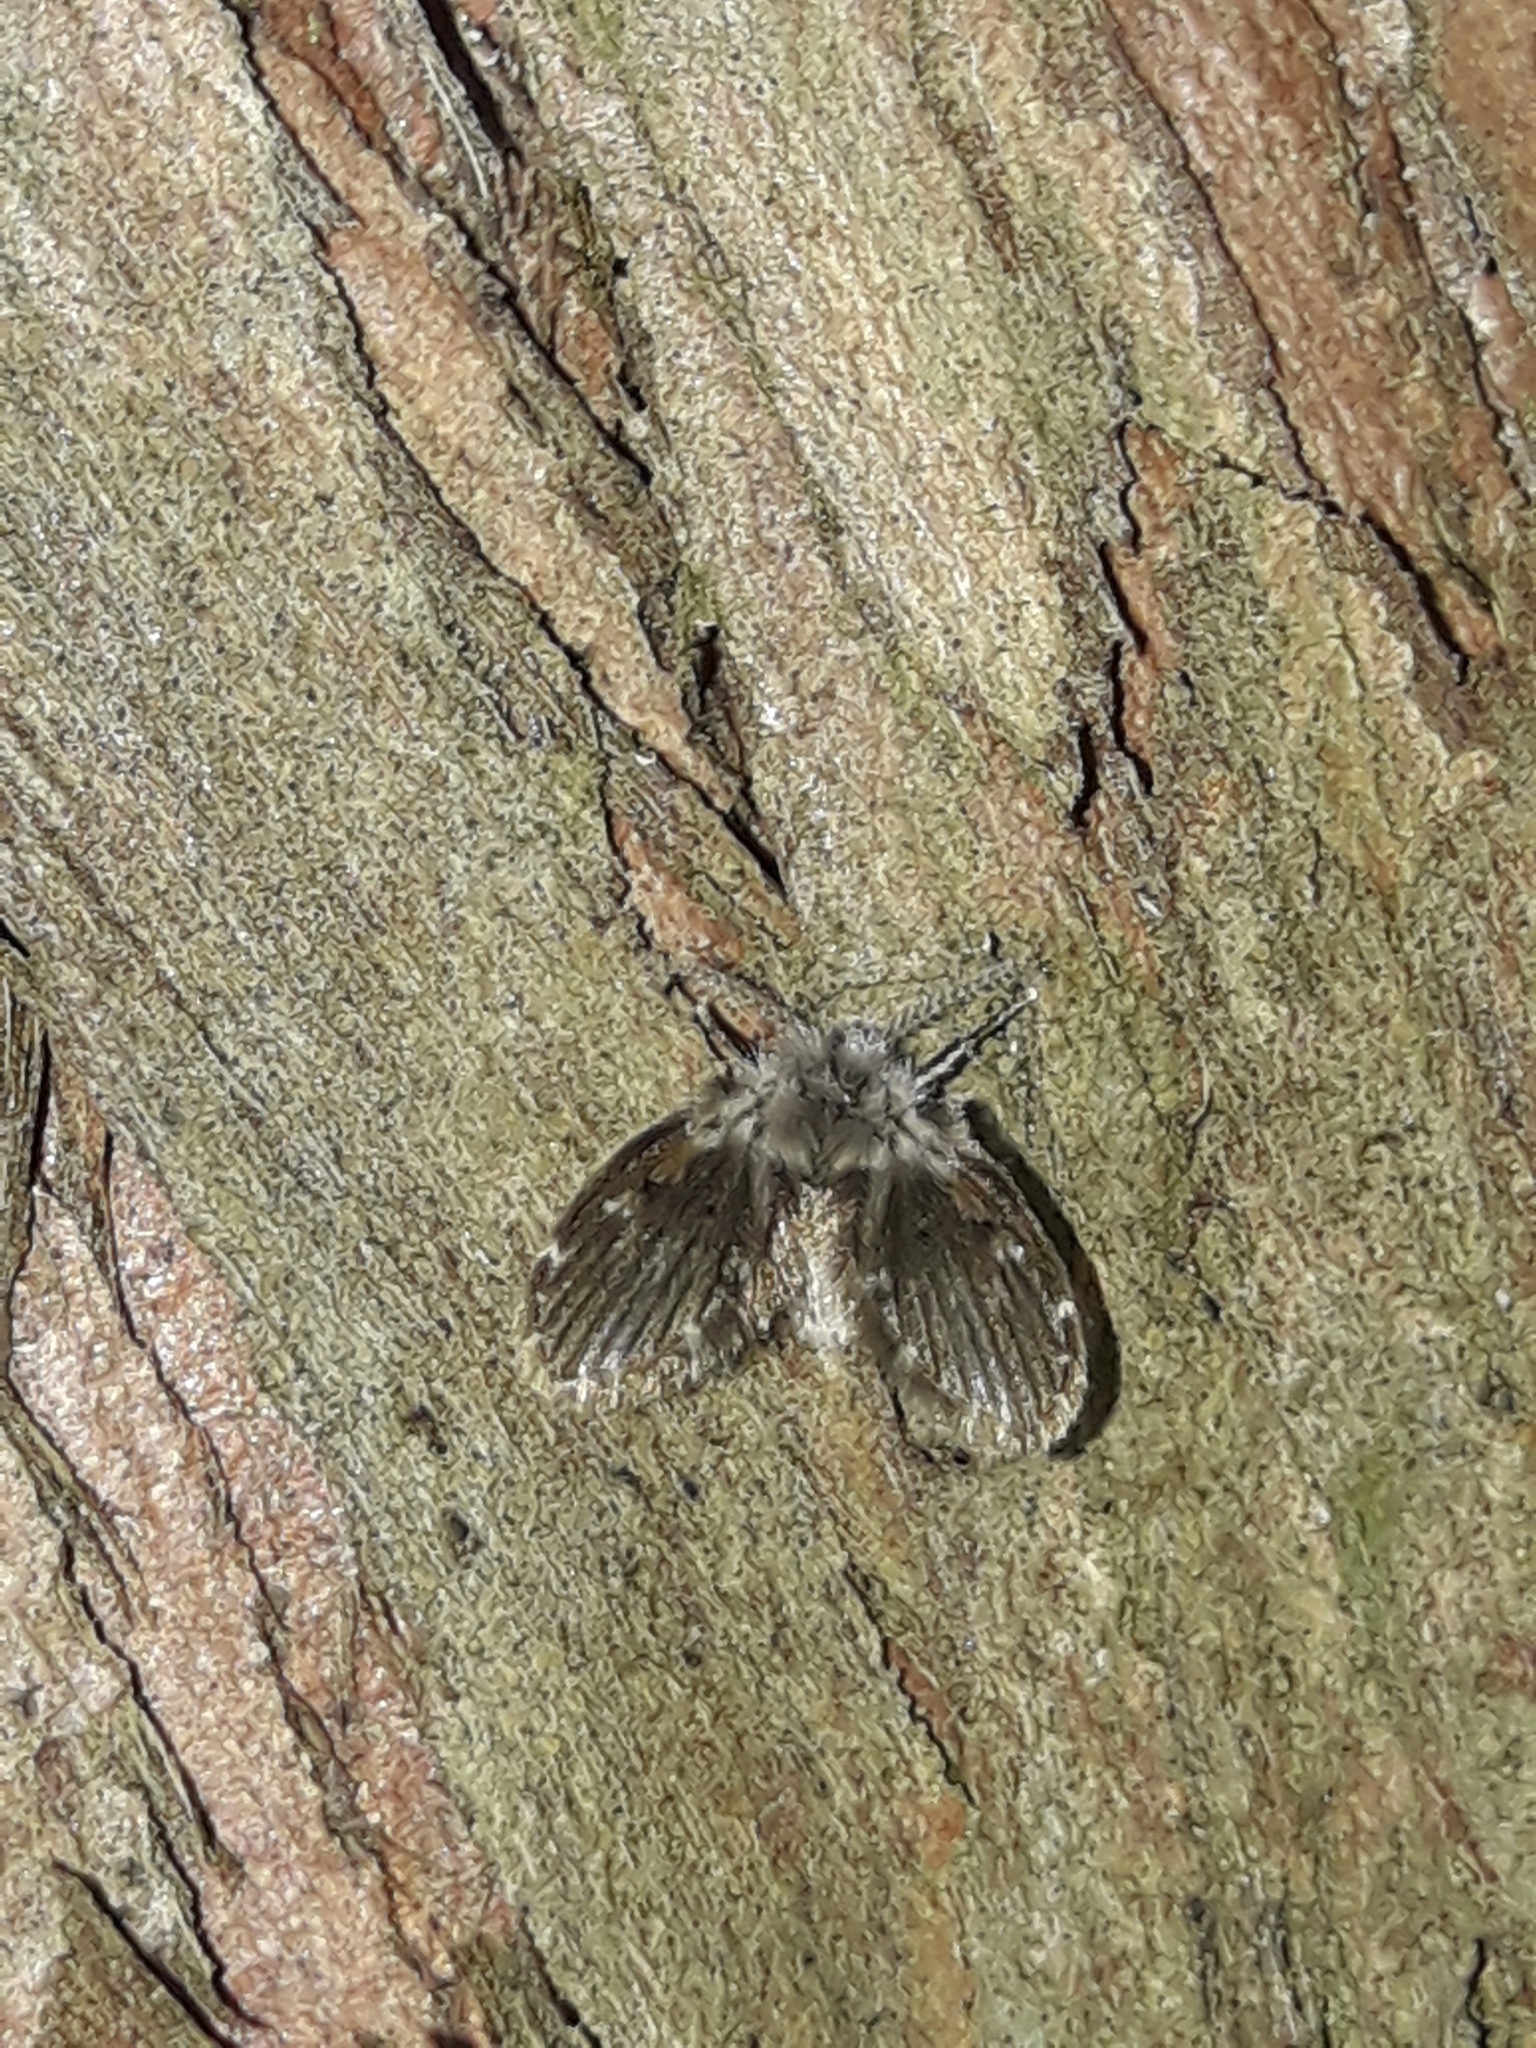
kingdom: Animalia
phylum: Arthropoda
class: Insecta
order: Diptera
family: Psychodidae
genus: Clogmia
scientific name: Clogmia albipunctatus
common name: White-spotted moth fly
